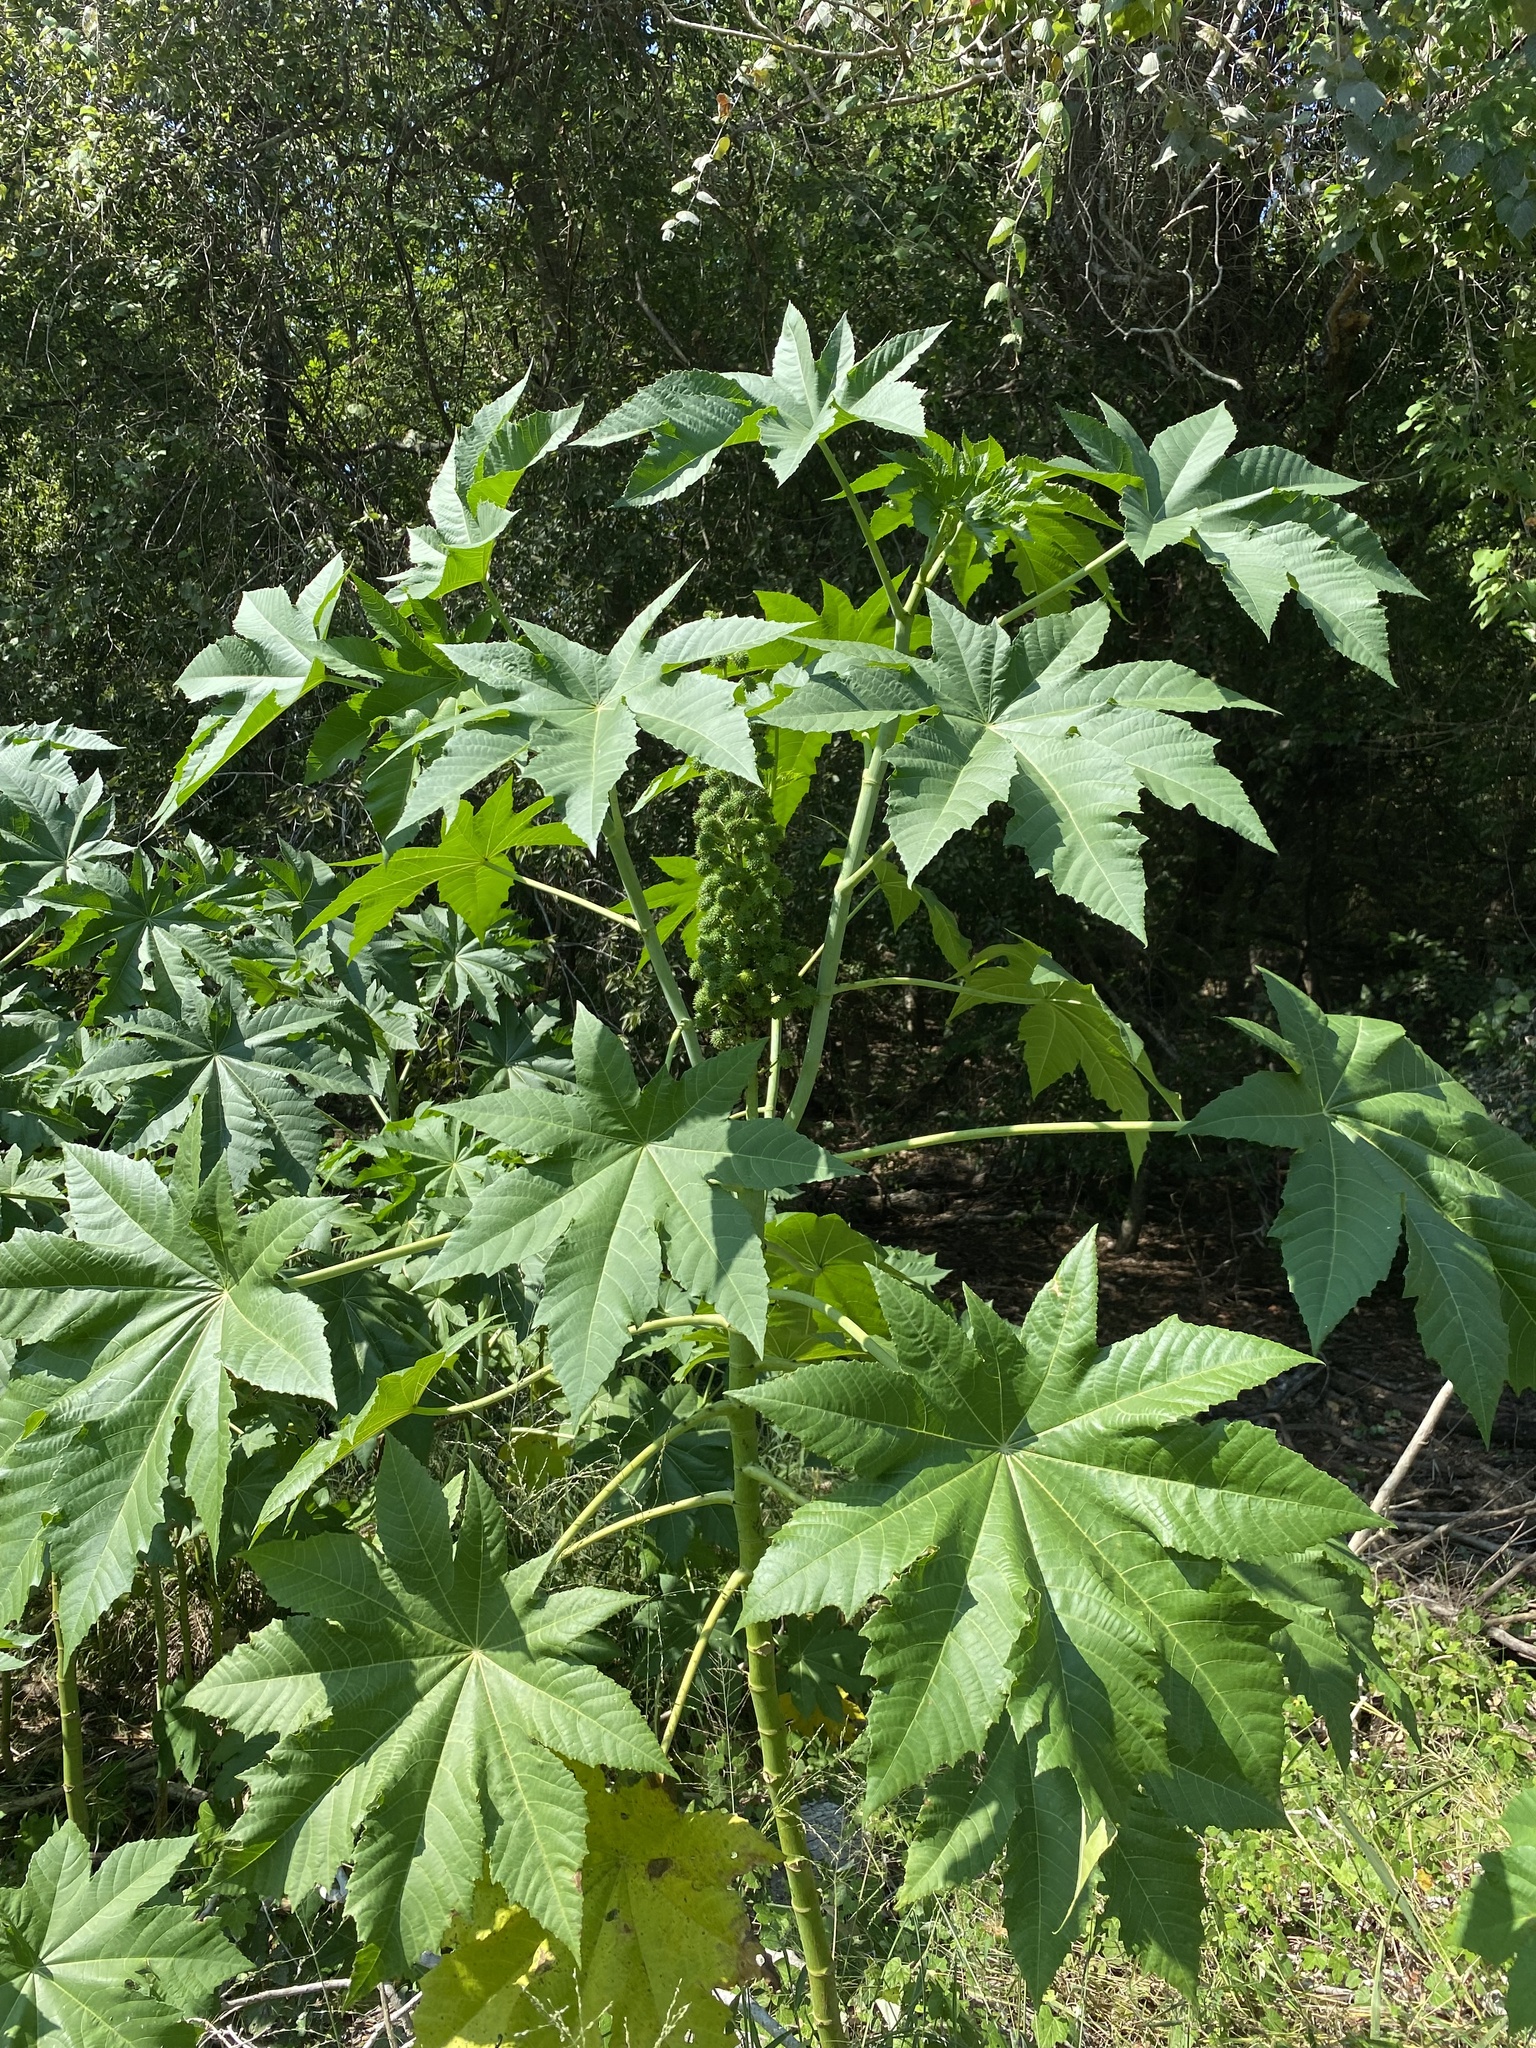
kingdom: Plantae
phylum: Tracheophyta
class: Magnoliopsida
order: Malpighiales
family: Euphorbiaceae
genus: Ricinus
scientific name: Ricinus communis
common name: Castor-oil-plant
